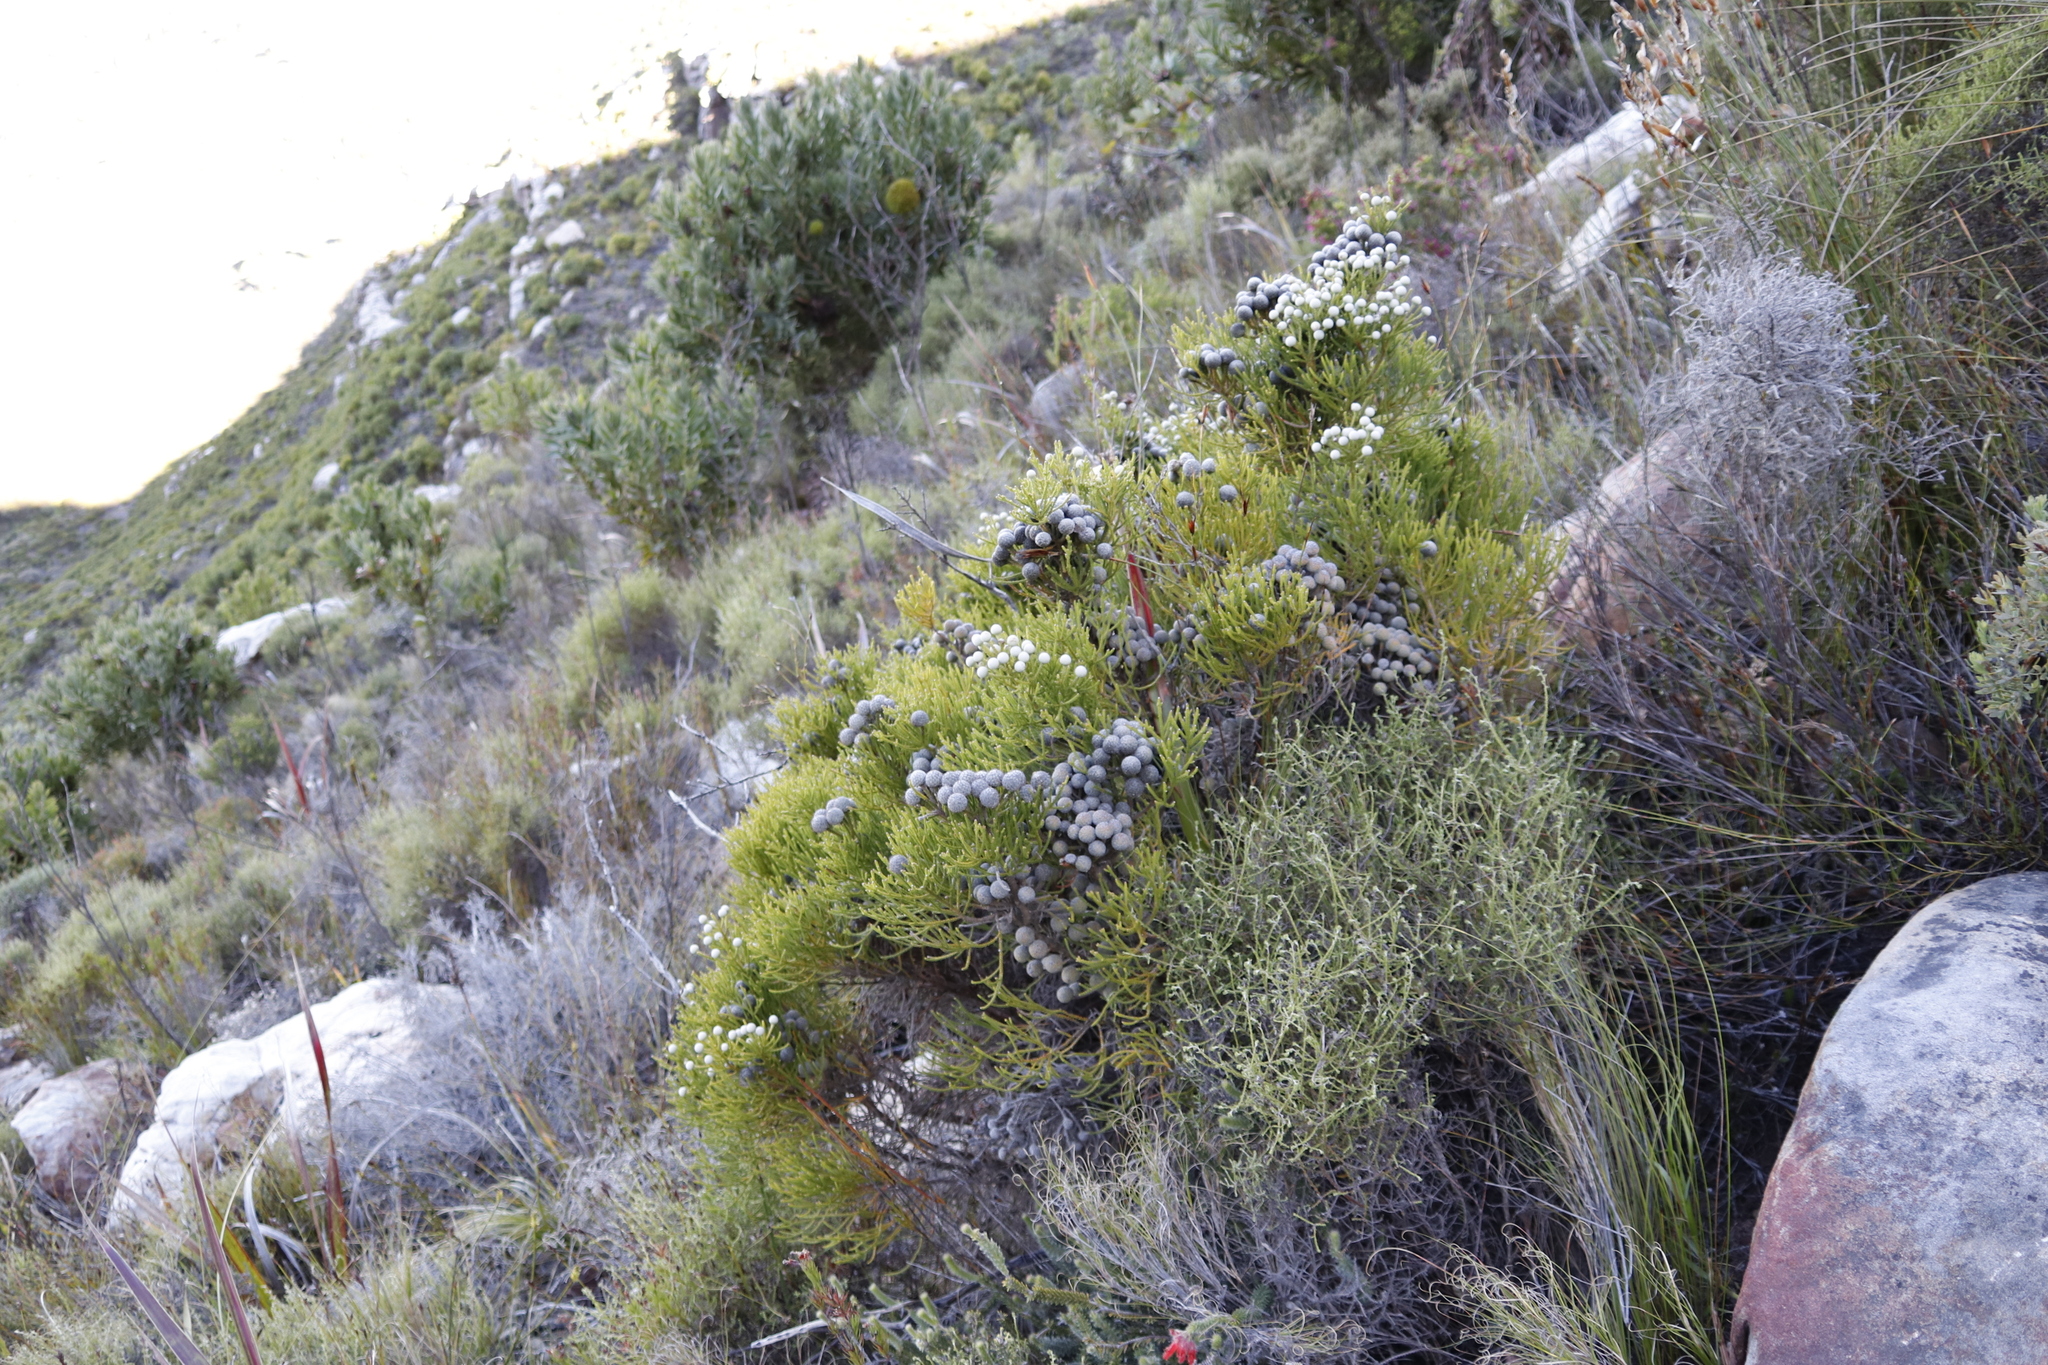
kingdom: Plantae
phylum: Tracheophyta
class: Magnoliopsida
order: Bruniales
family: Bruniaceae
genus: Brunia
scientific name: Brunia noduliflora
